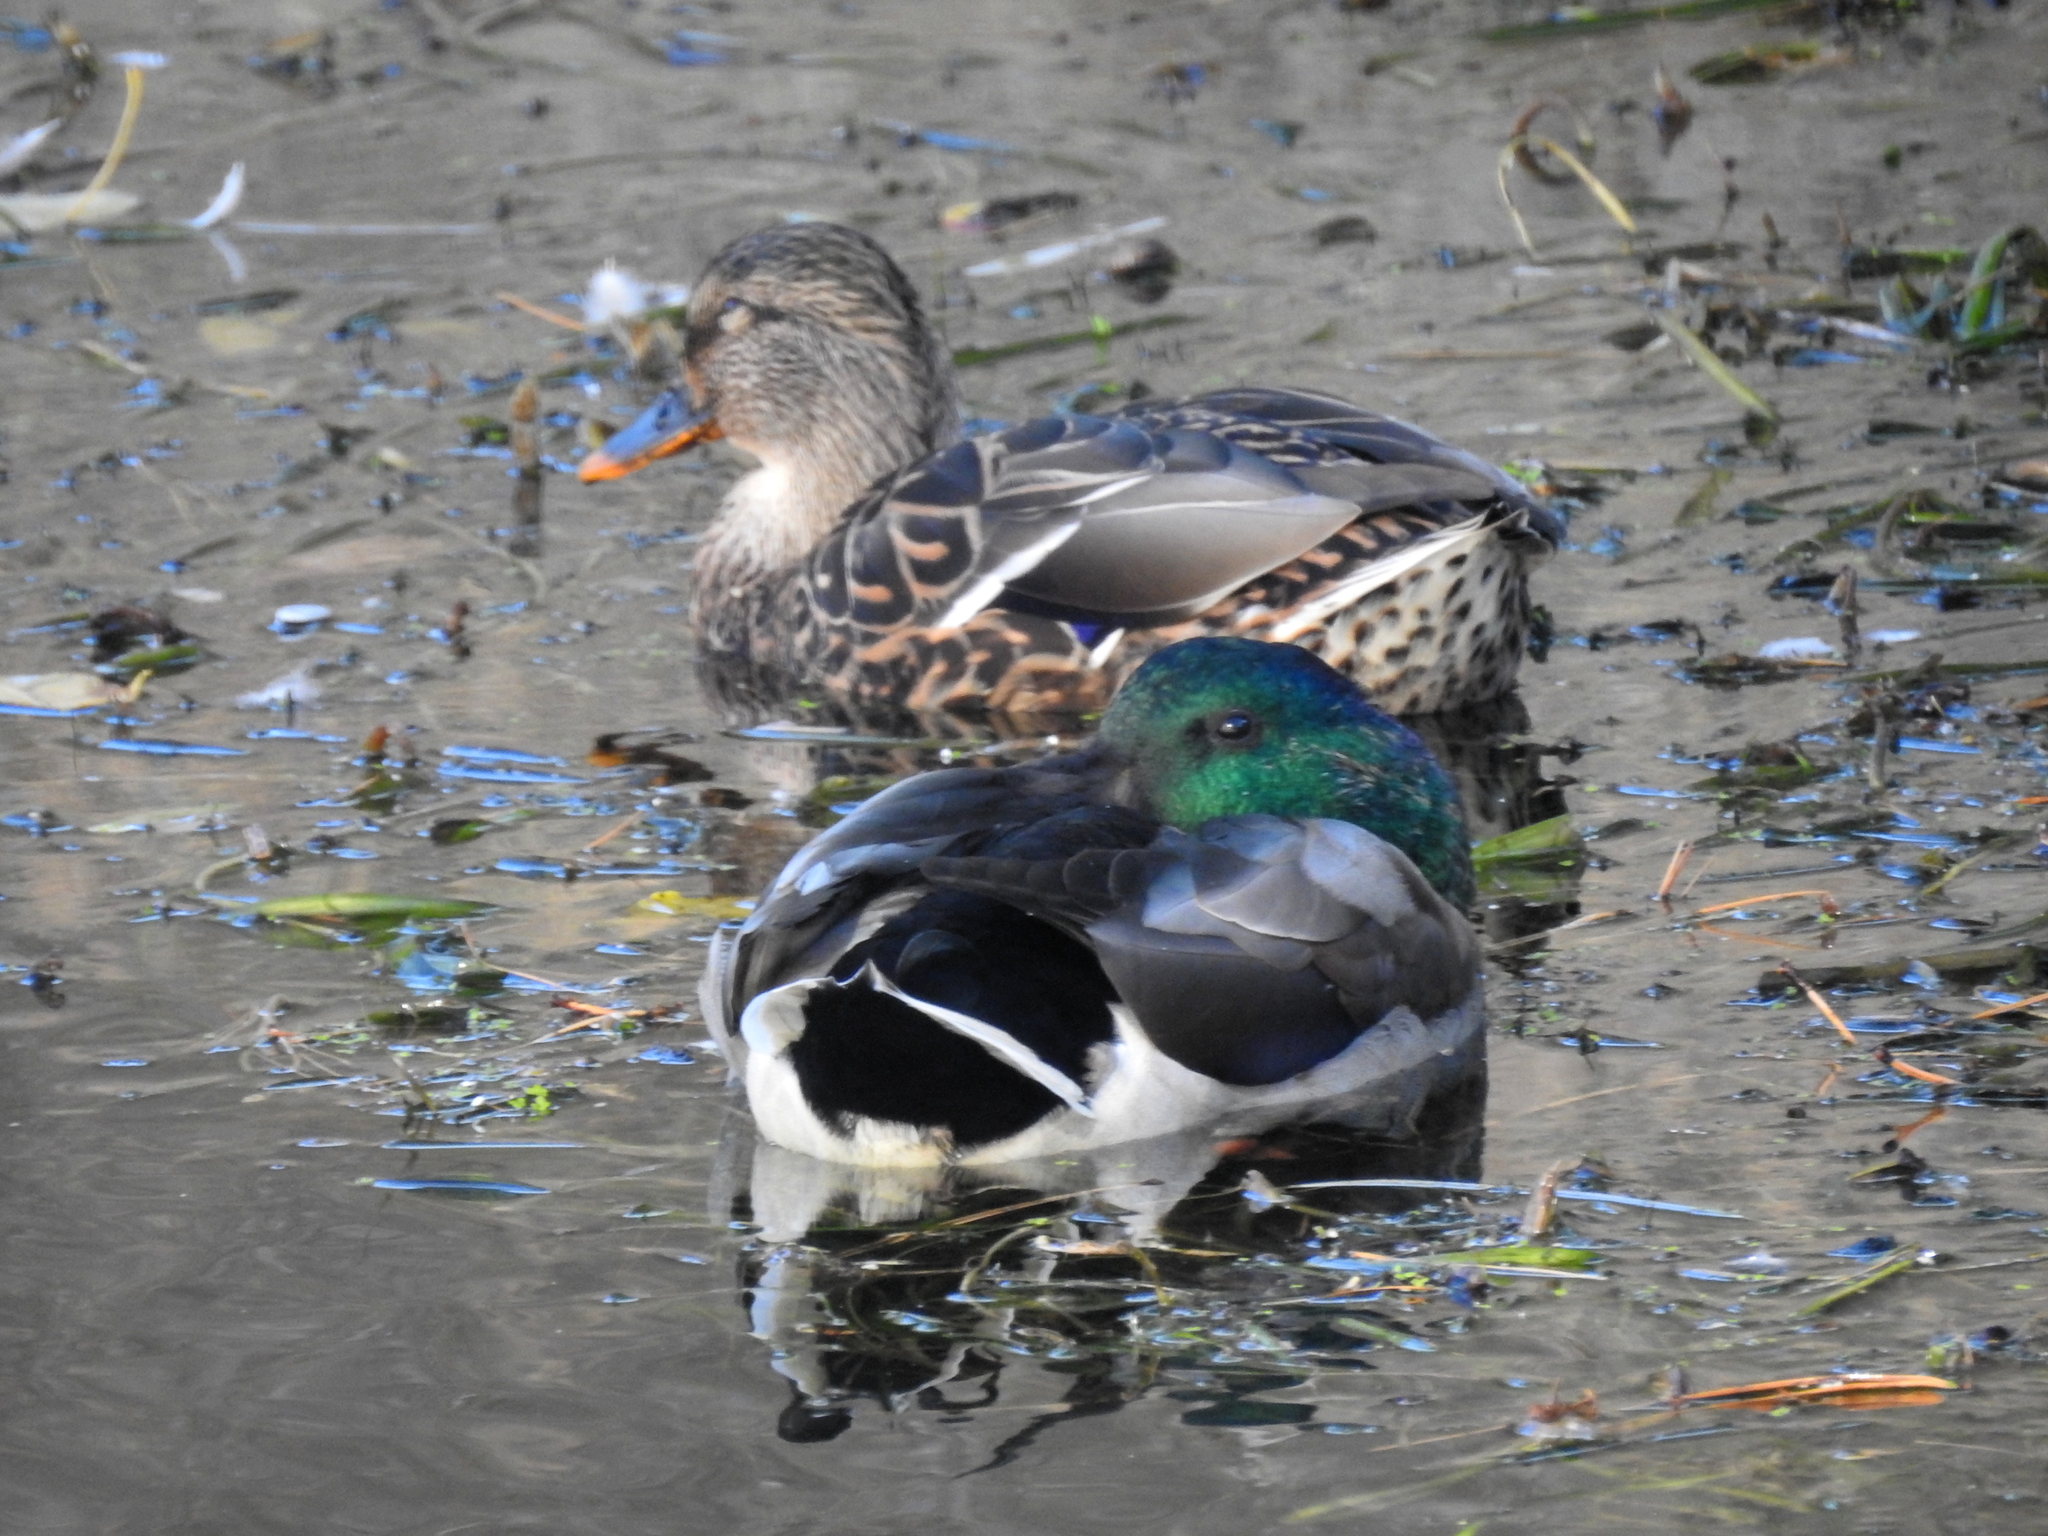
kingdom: Animalia
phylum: Chordata
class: Aves
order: Anseriformes
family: Anatidae
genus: Anas
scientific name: Anas platyrhynchos
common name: Mallard
